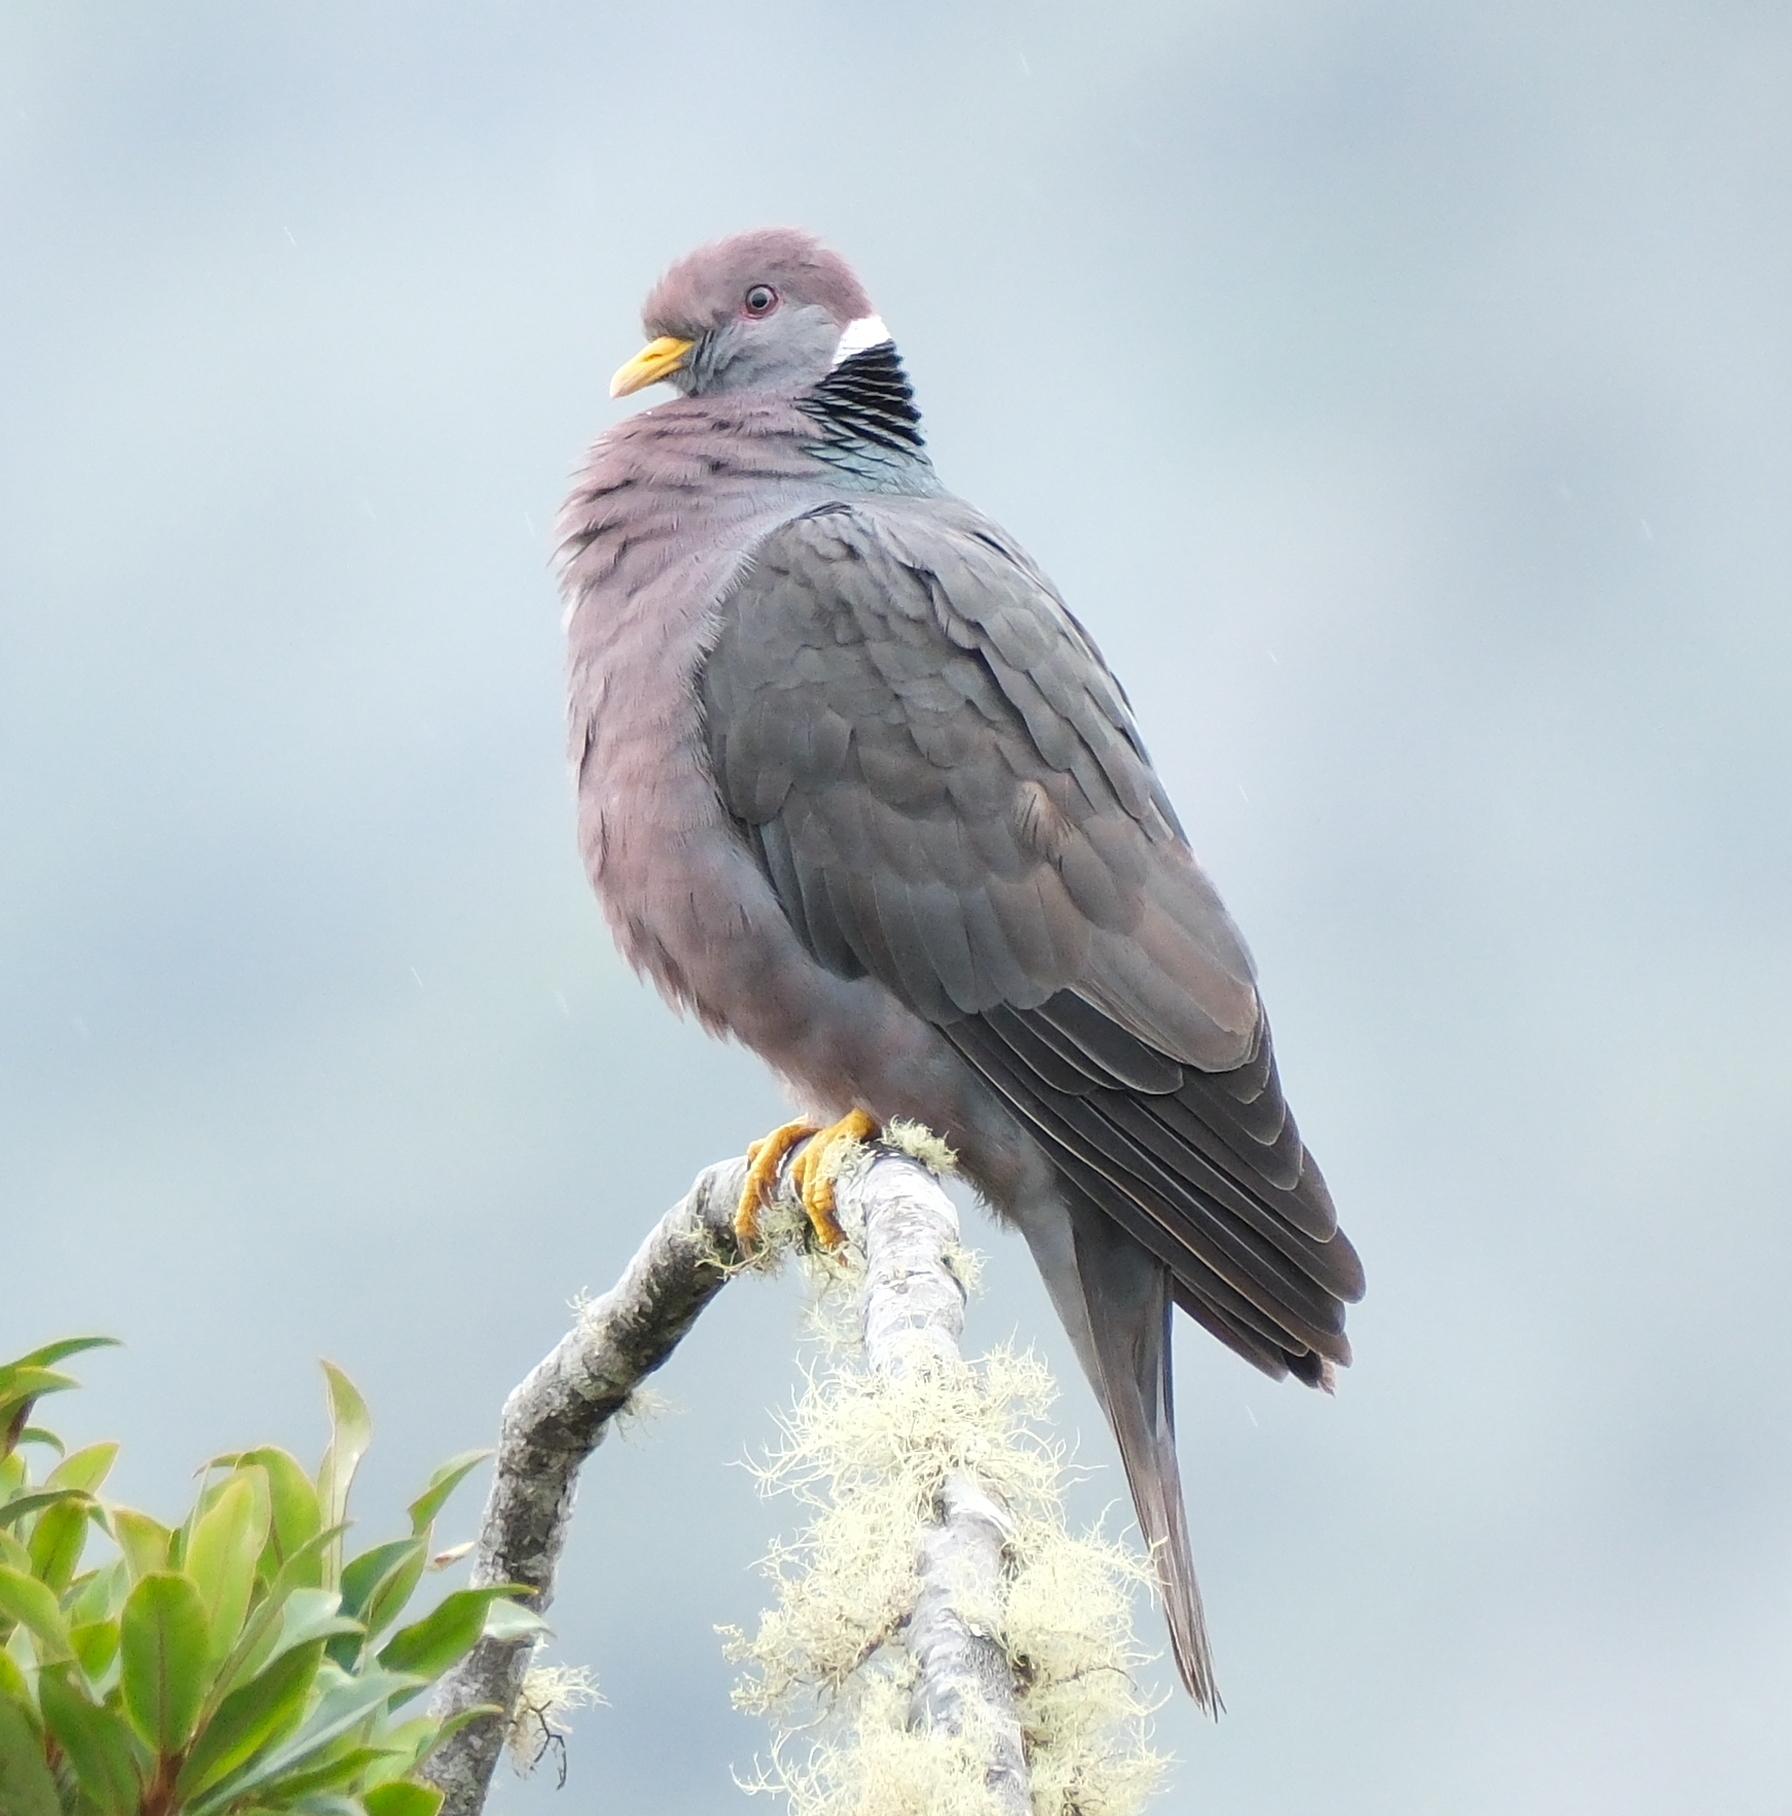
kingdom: Animalia
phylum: Chordata
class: Aves
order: Columbiformes
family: Columbidae
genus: Patagioenas
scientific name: Patagioenas fasciata
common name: Band-tailed pigeon
